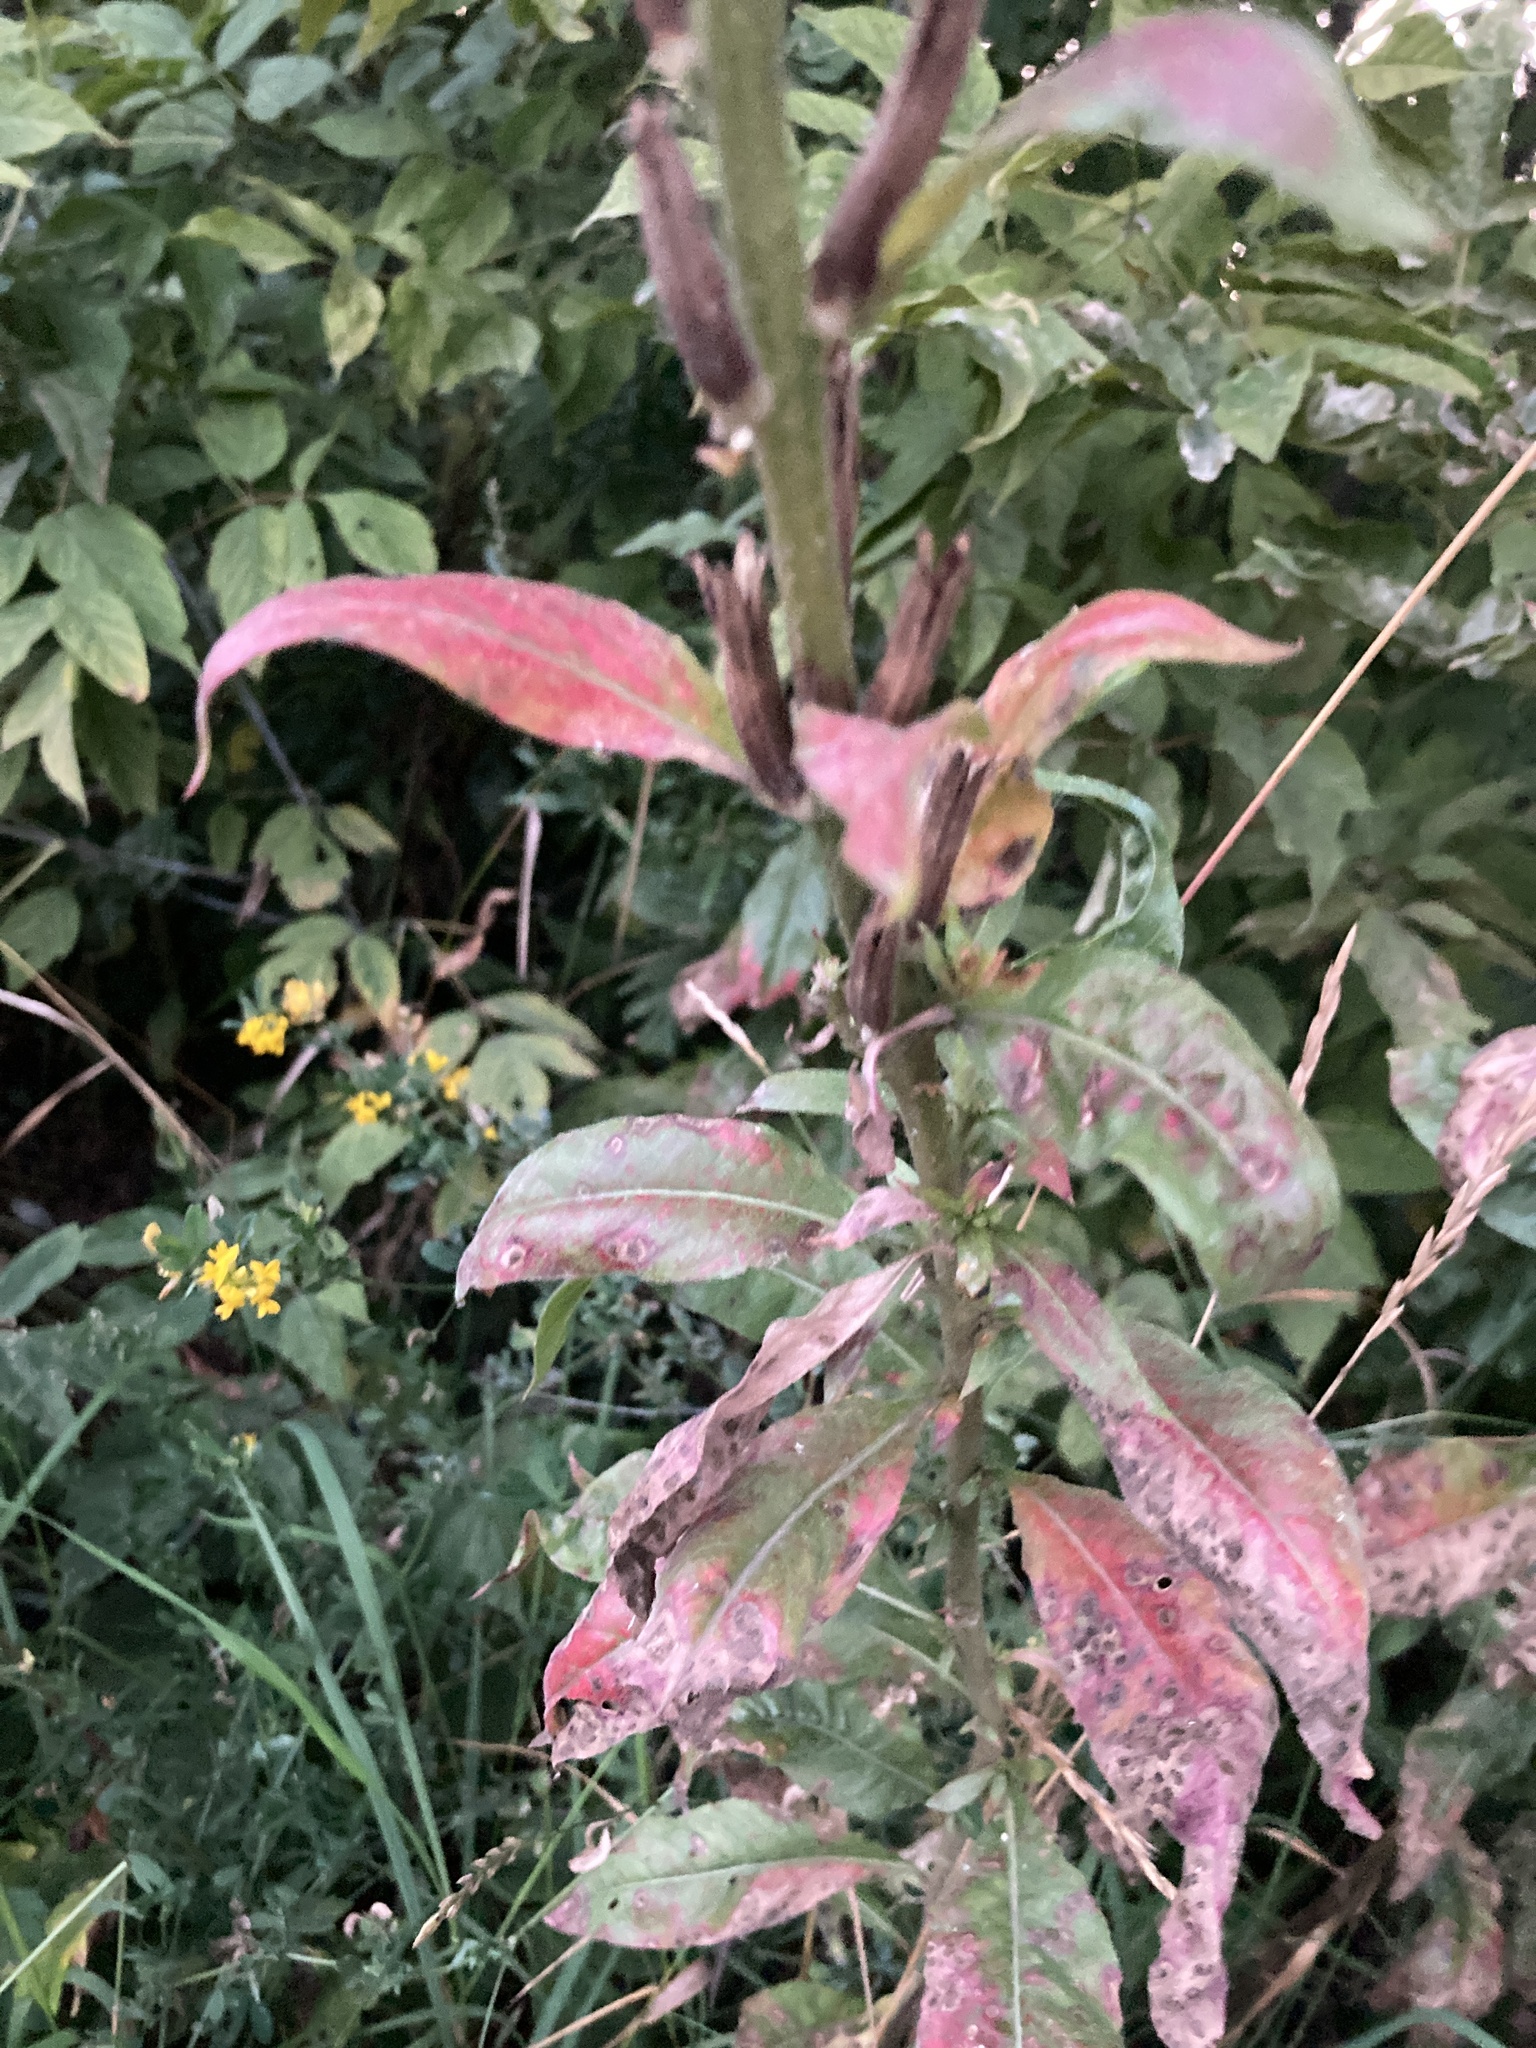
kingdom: Plantae
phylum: Tracheophyta
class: Magnoliopsida
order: Myrtales
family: Onagraceae
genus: Oenothera
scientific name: Oenothera biennis
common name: Common evening-primrose
